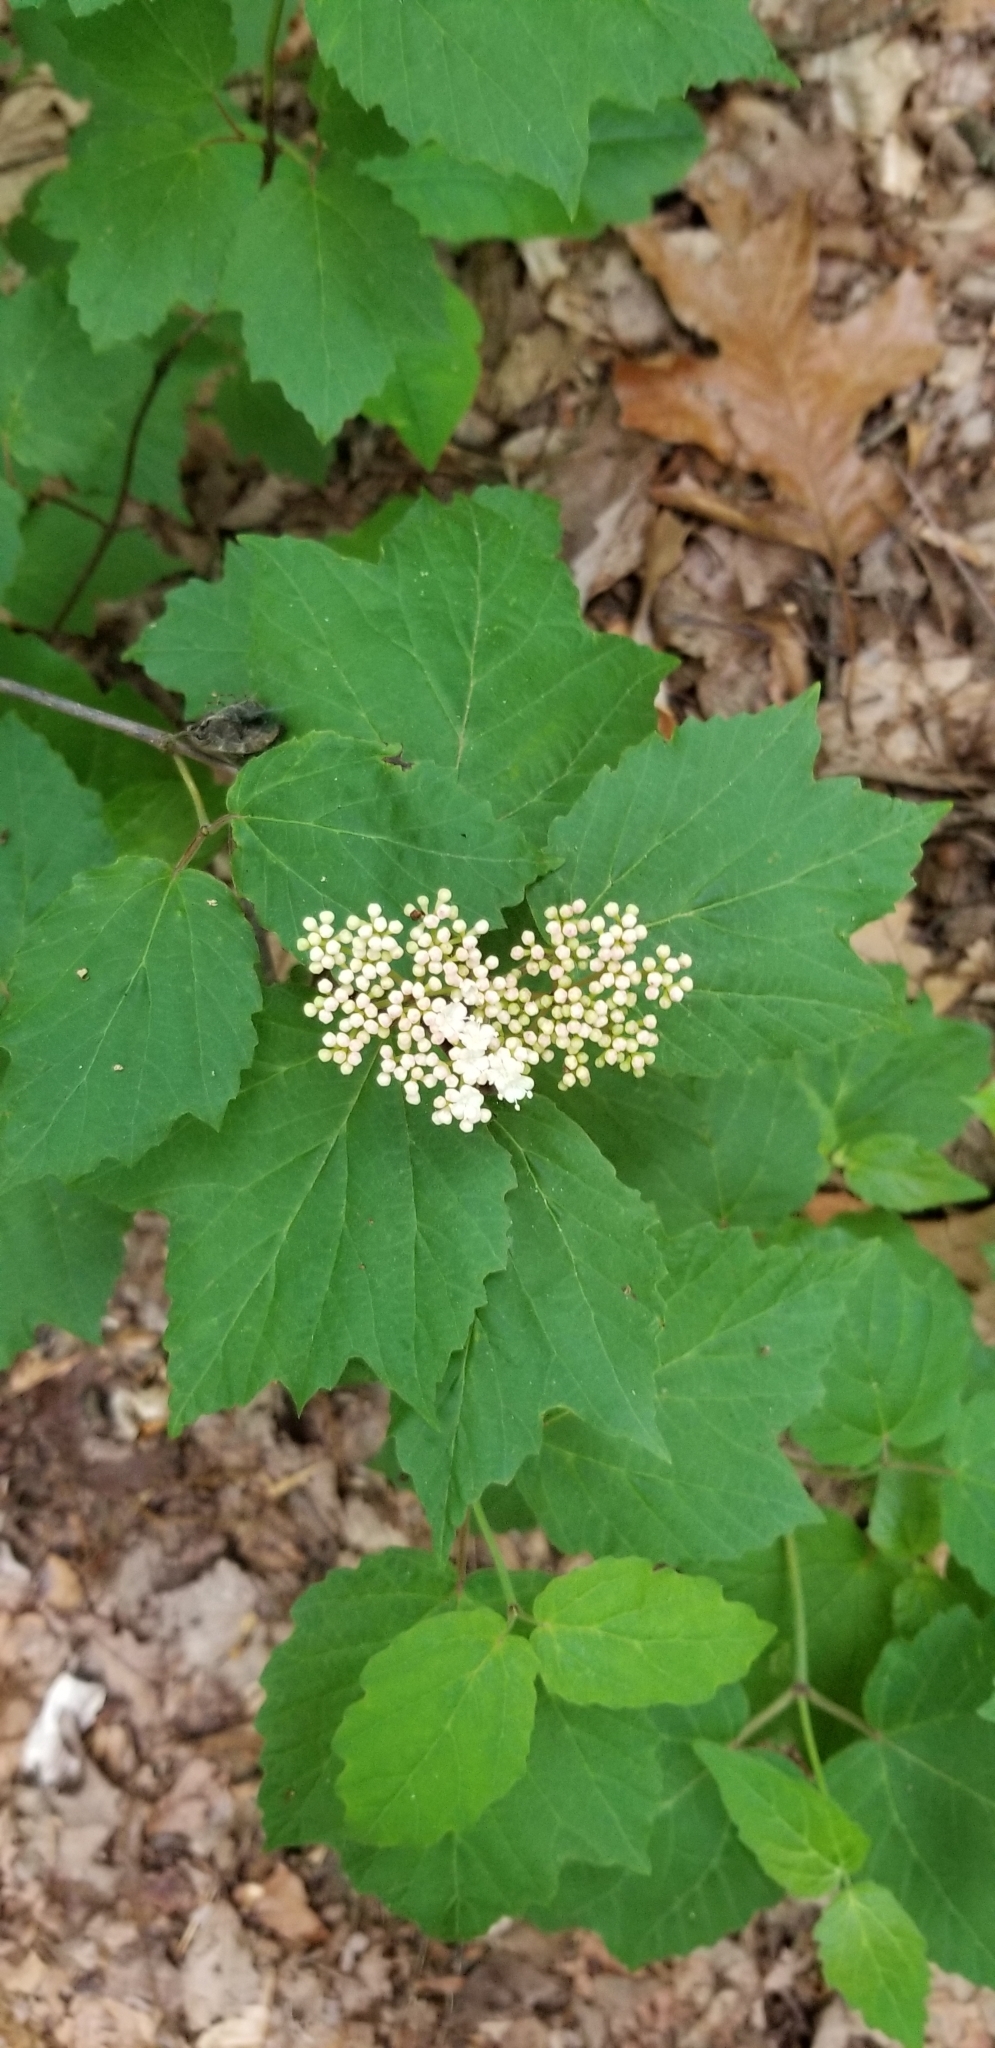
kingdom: Plantae
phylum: Tracheophyta
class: Magnoliopsida
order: Dipsacales
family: Viburnaceae
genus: Viburnum
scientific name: Viburnum acerifolium
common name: Dockmackie
